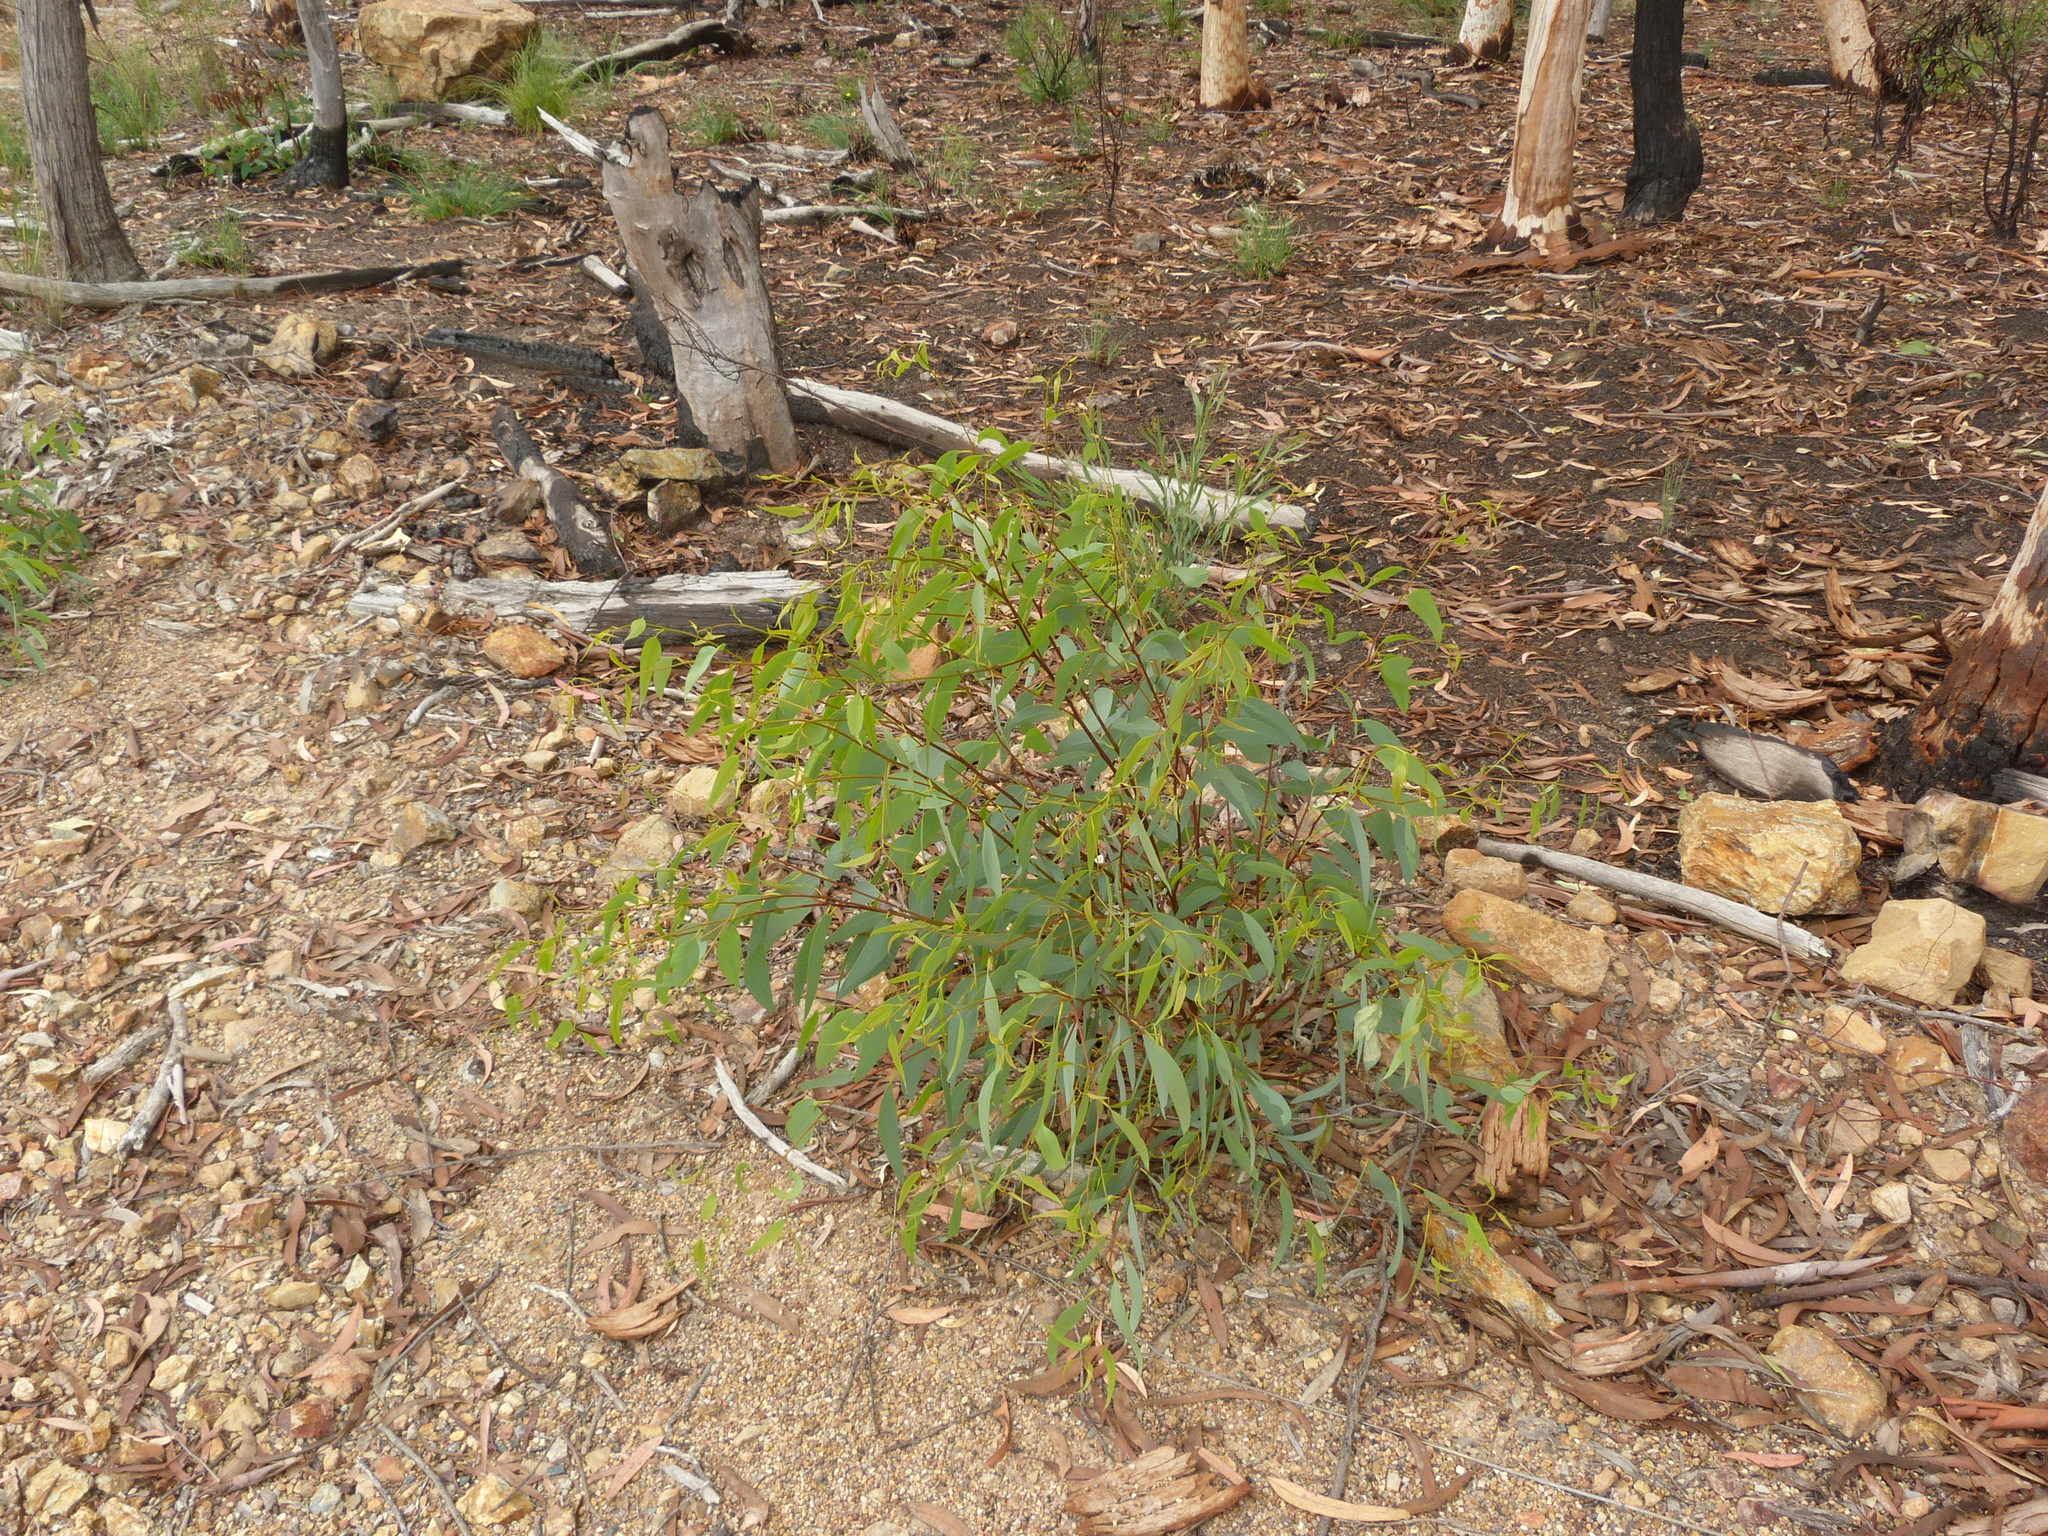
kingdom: Plantae
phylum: Tracheophyta
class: Magnoliopsida
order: Myrtales
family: Myrtaceae
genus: Eucalyptus
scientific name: Eucalyptus racemosa
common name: Scribbly gum
